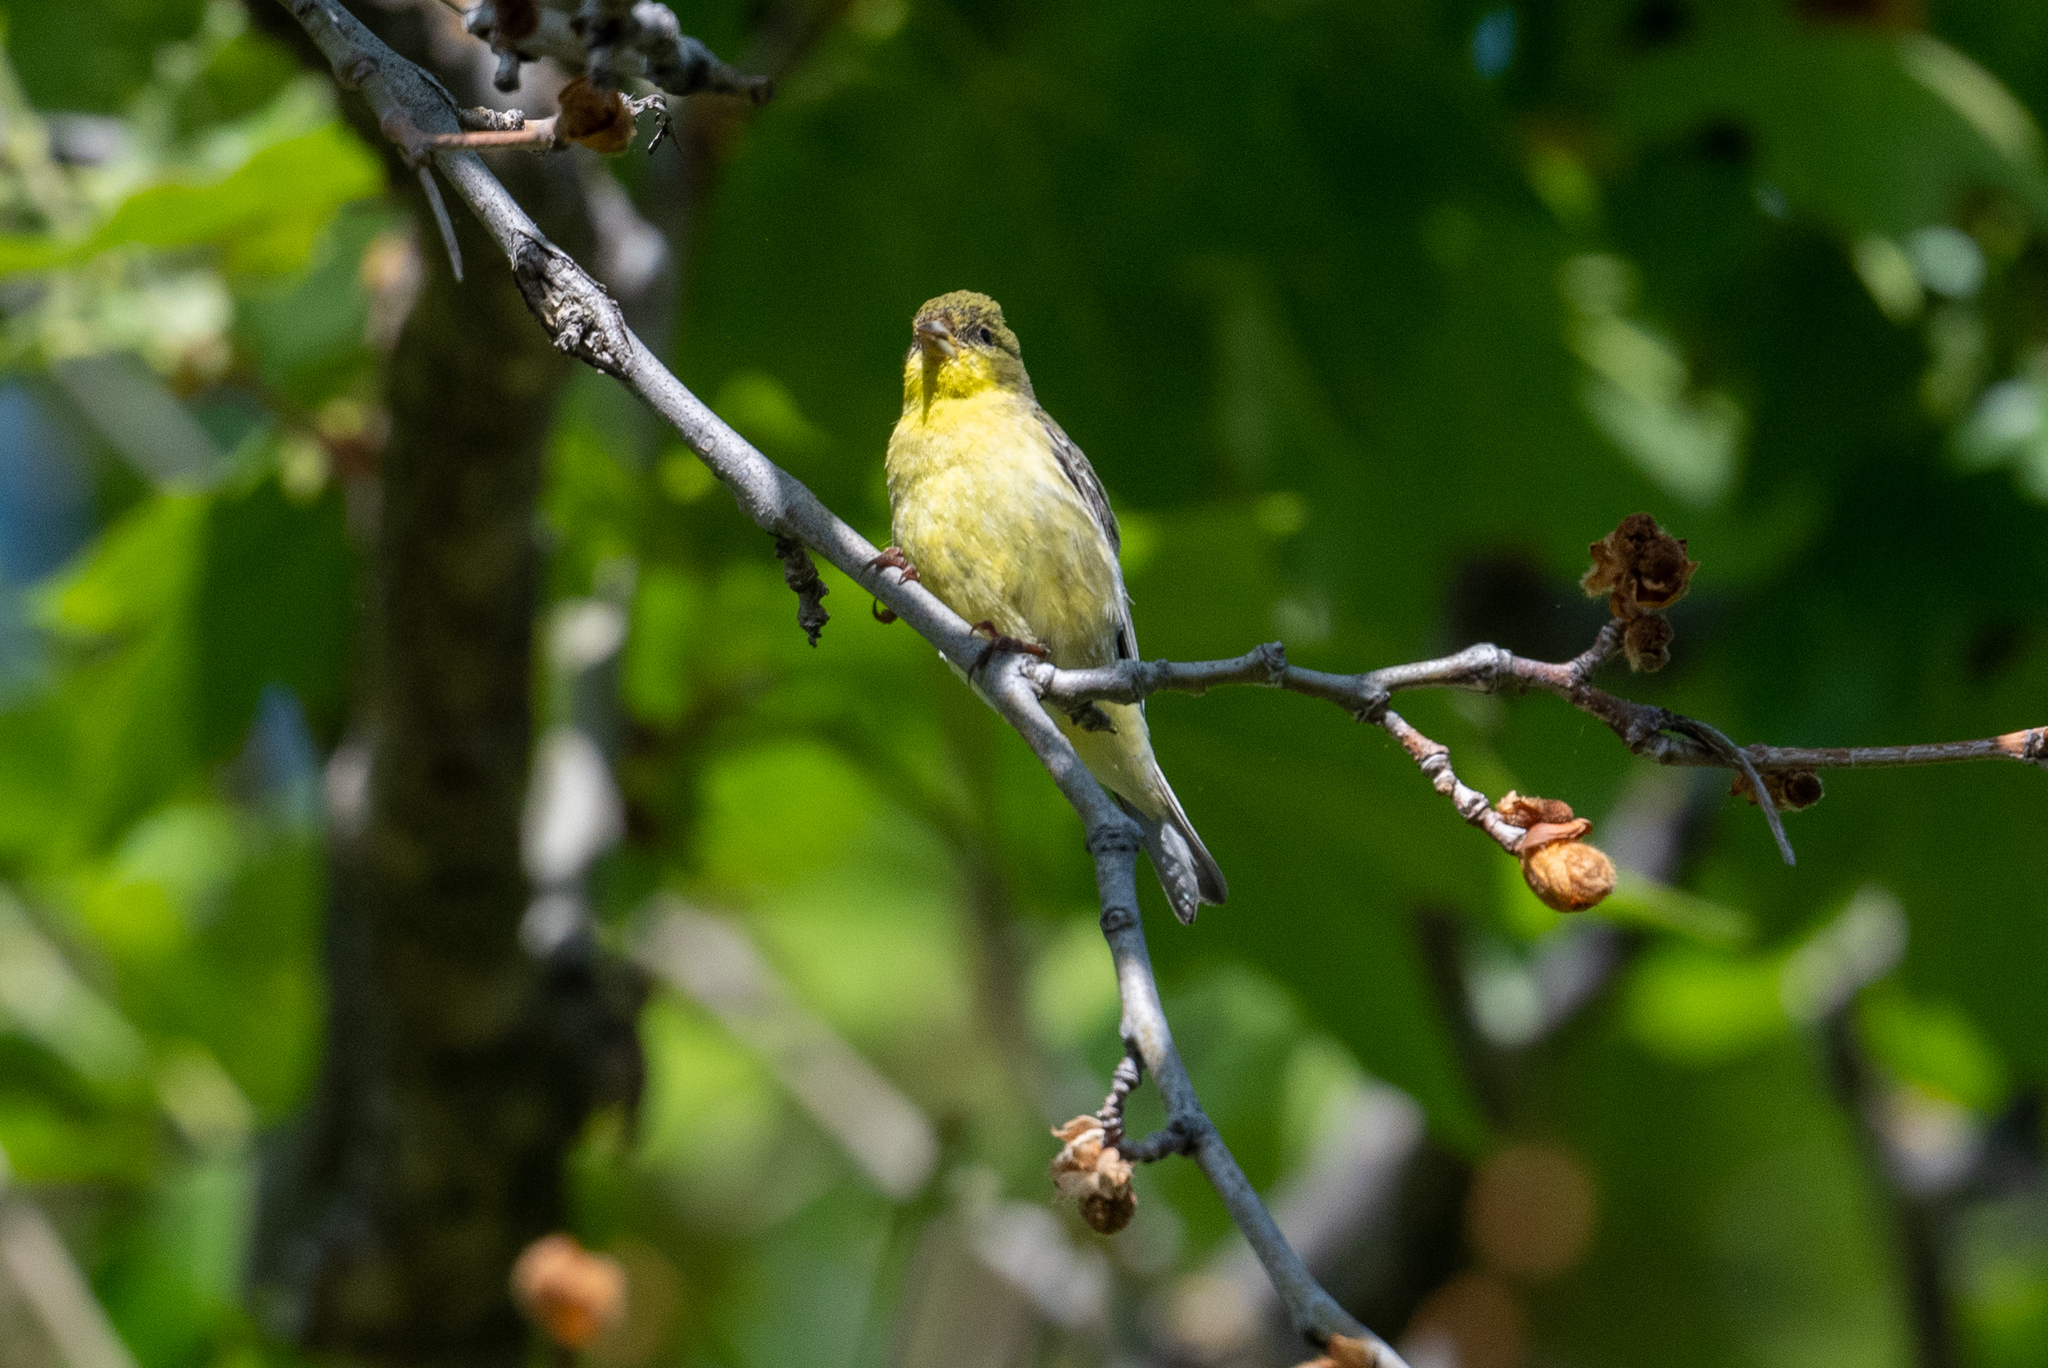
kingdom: Animalia
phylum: Chordata
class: Aves
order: Passeriformes
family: Fringillidae
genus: Spinus
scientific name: Spinus psaltria
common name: Lesser goldfinch
